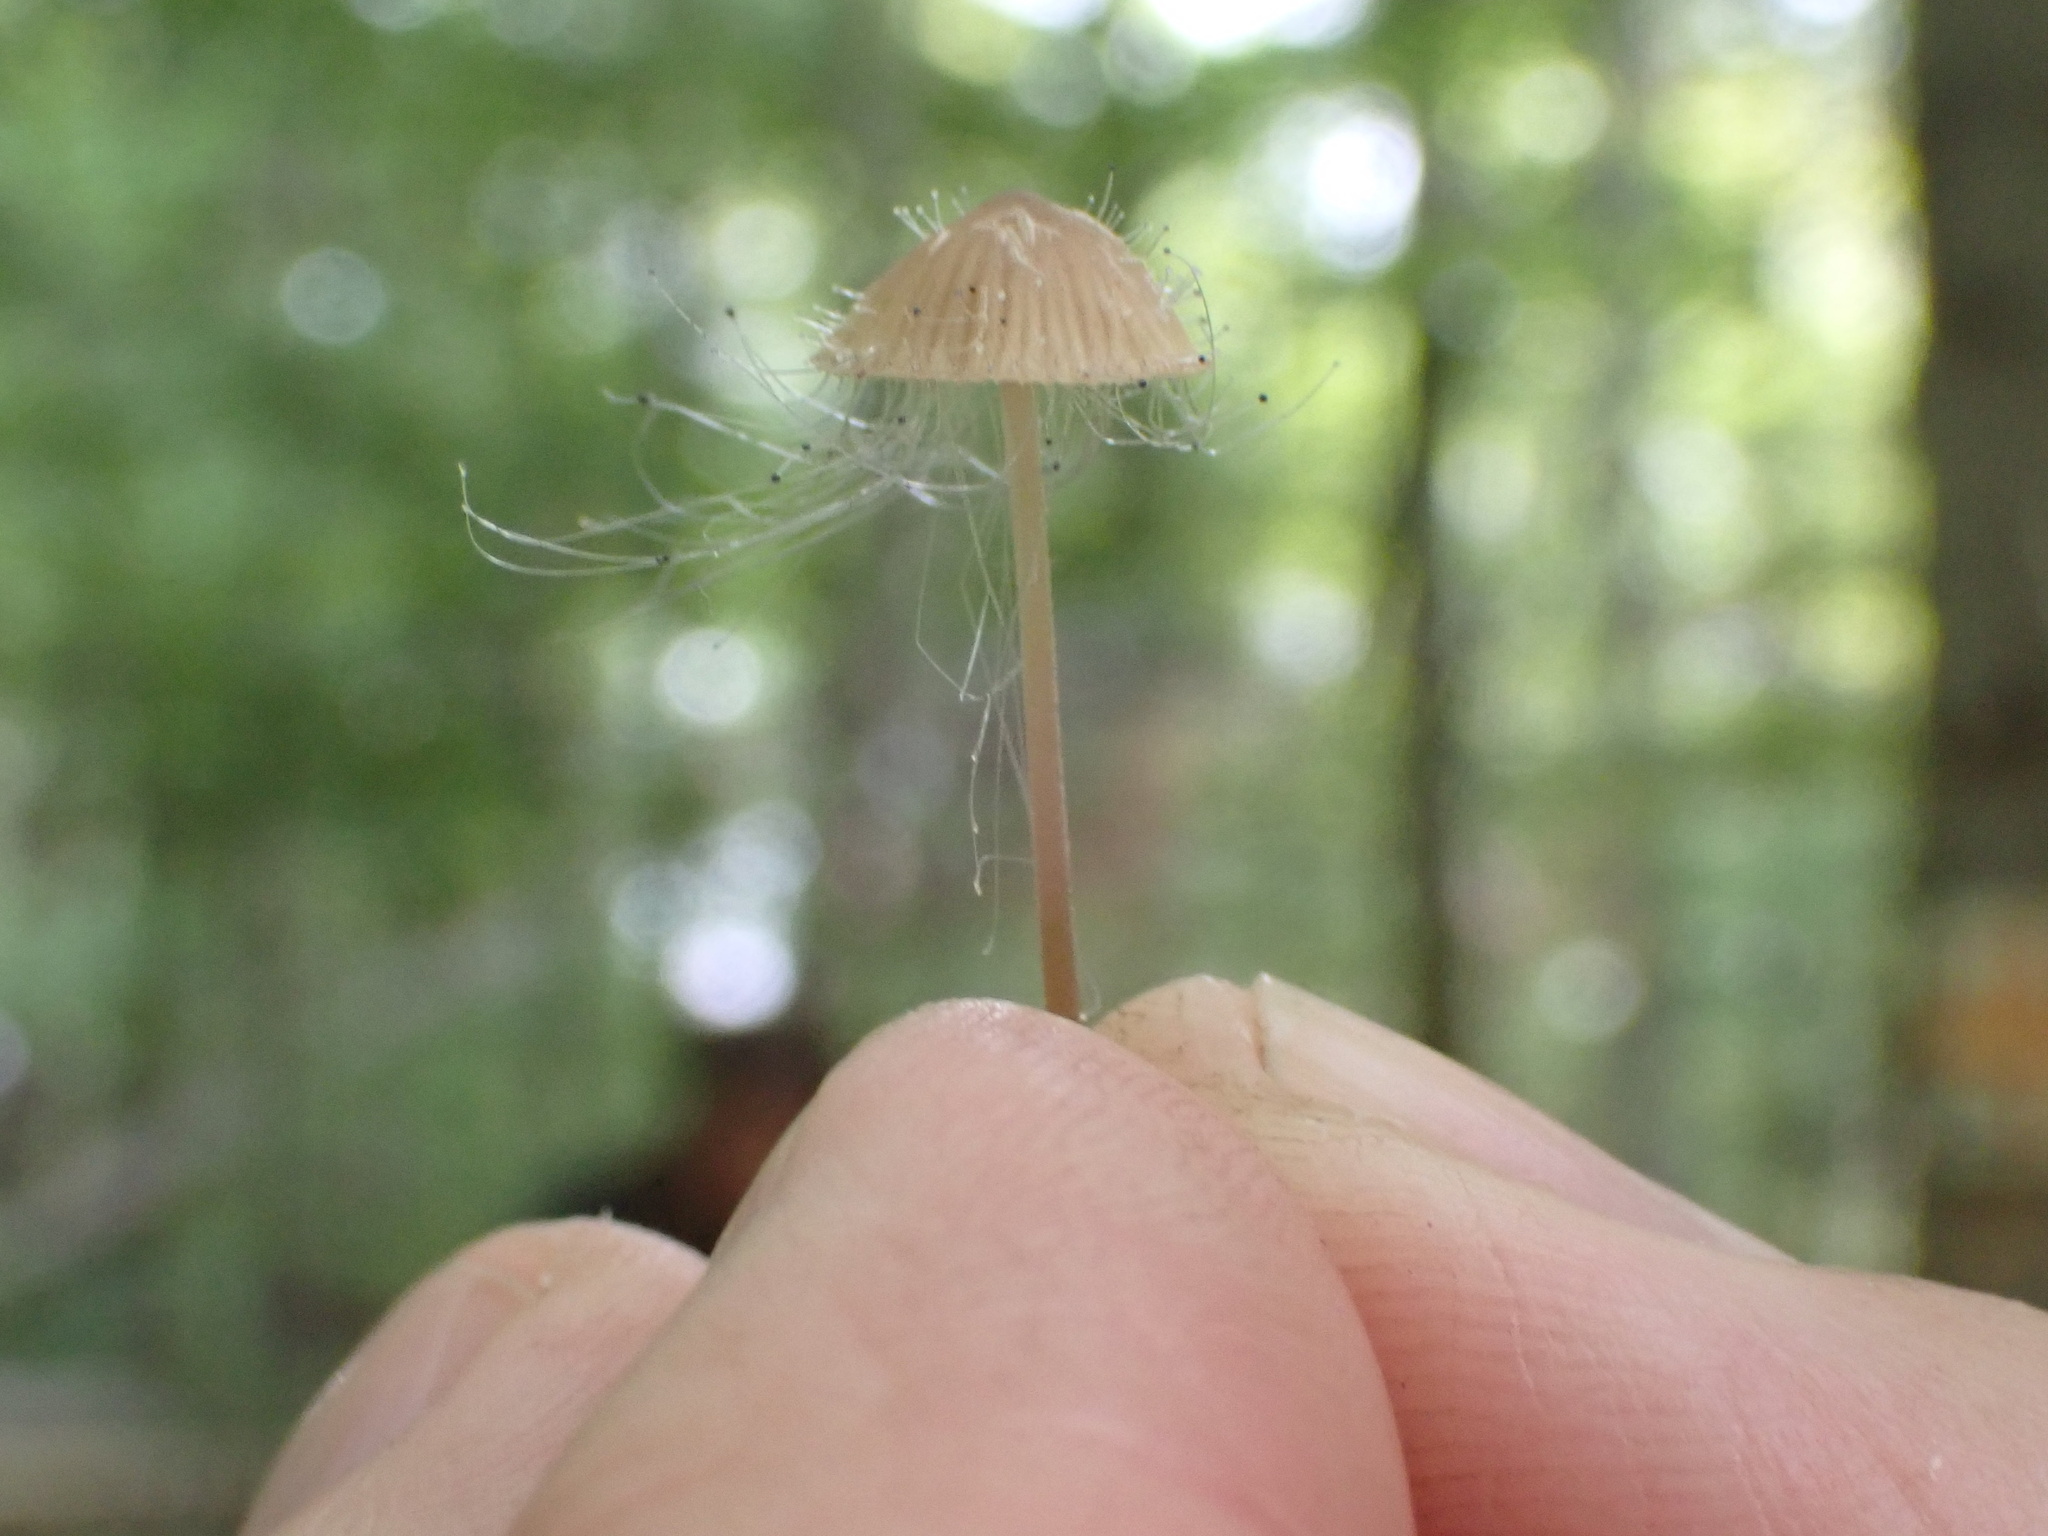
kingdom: Fungi
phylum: Mucoromycota
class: Mucoromycetes
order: Mucorales
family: Phycomycetaceae
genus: Spinellus
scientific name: Spinellus fusiger
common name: Bonnet mould
